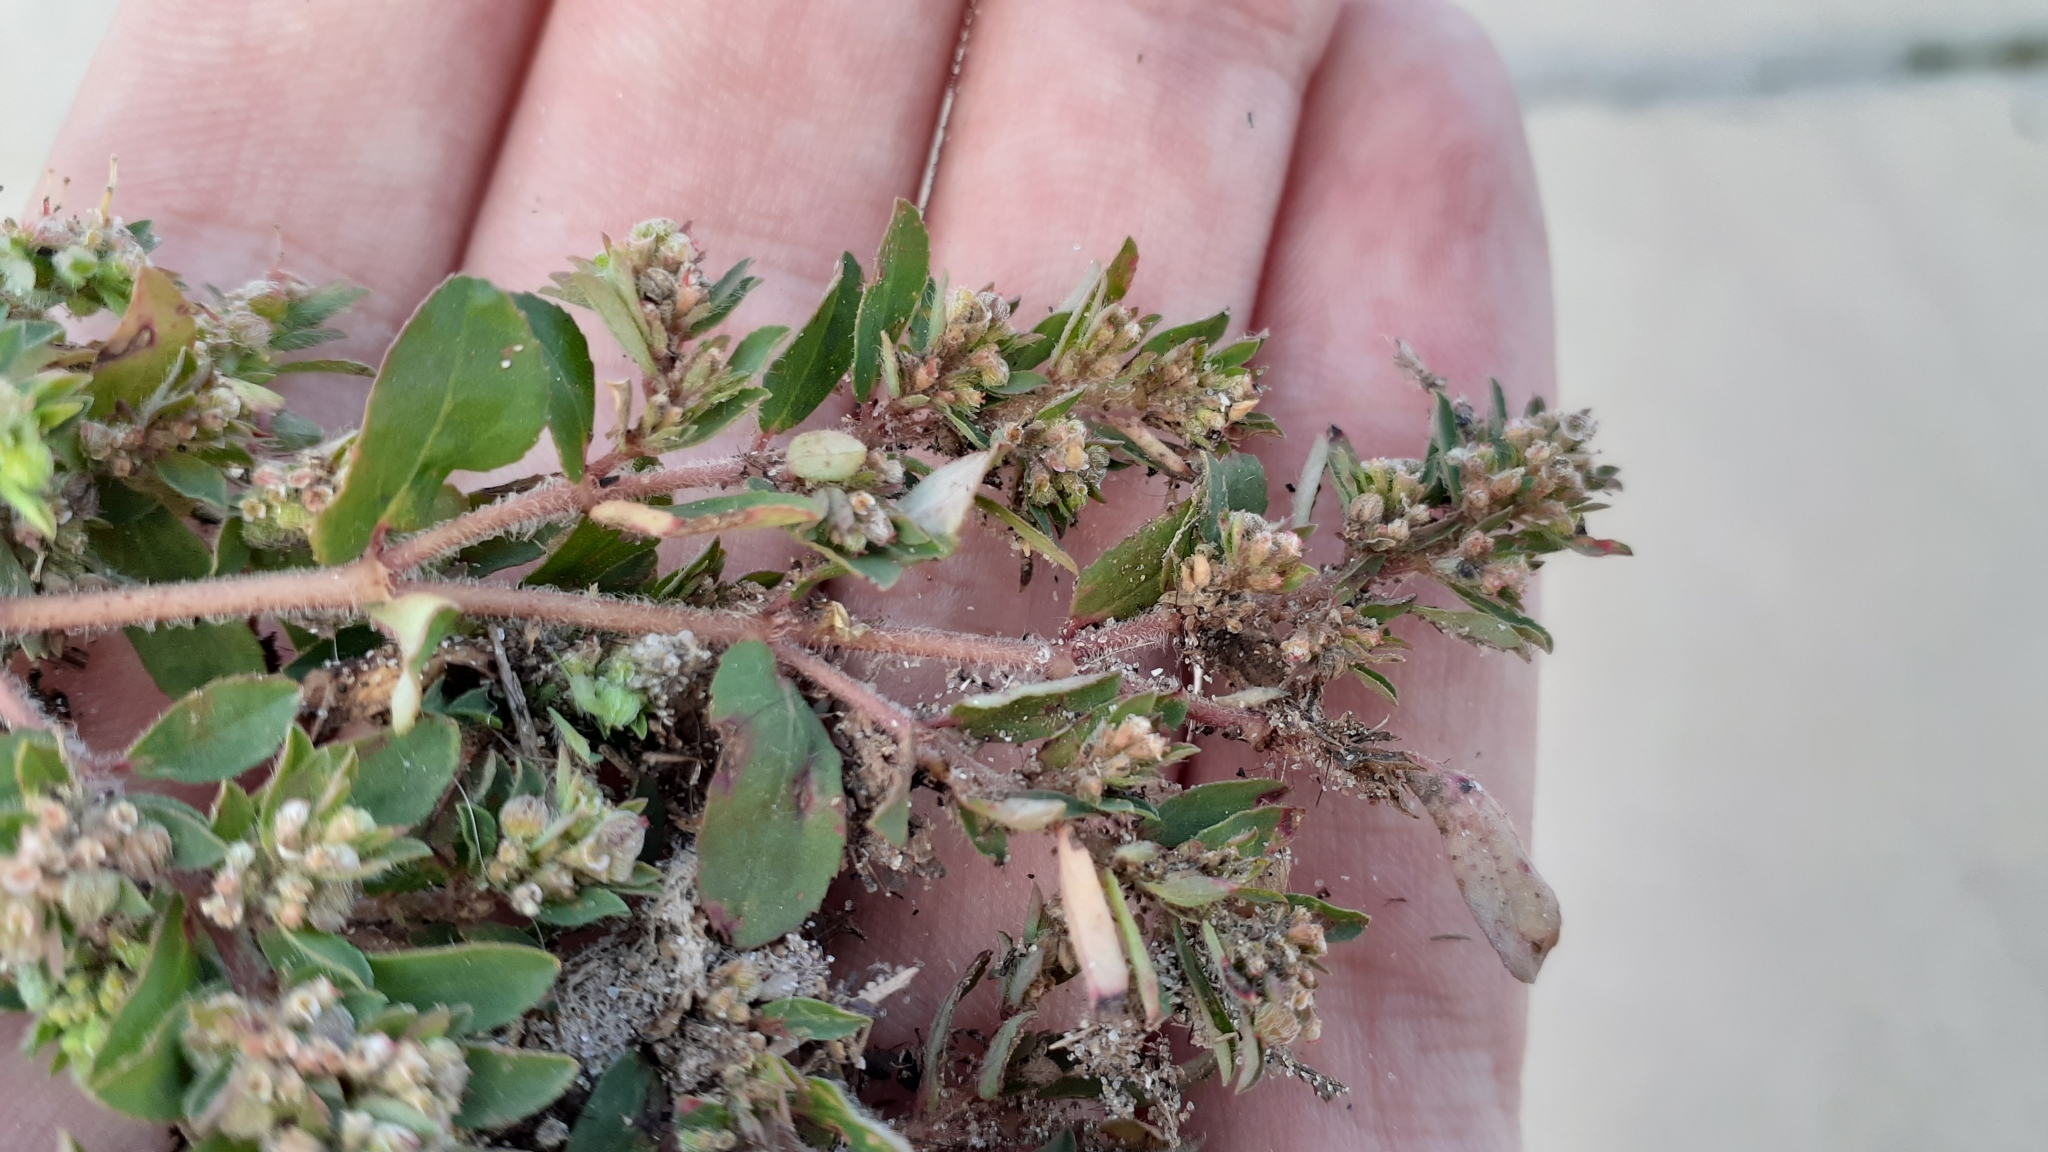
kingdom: Plantae
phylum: Tracheophyta
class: Magnoliopsida
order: Malpighiales
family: Euphorbiaceae
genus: Euphorbia
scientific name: Euphorbia maculata
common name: Spotted spurge
